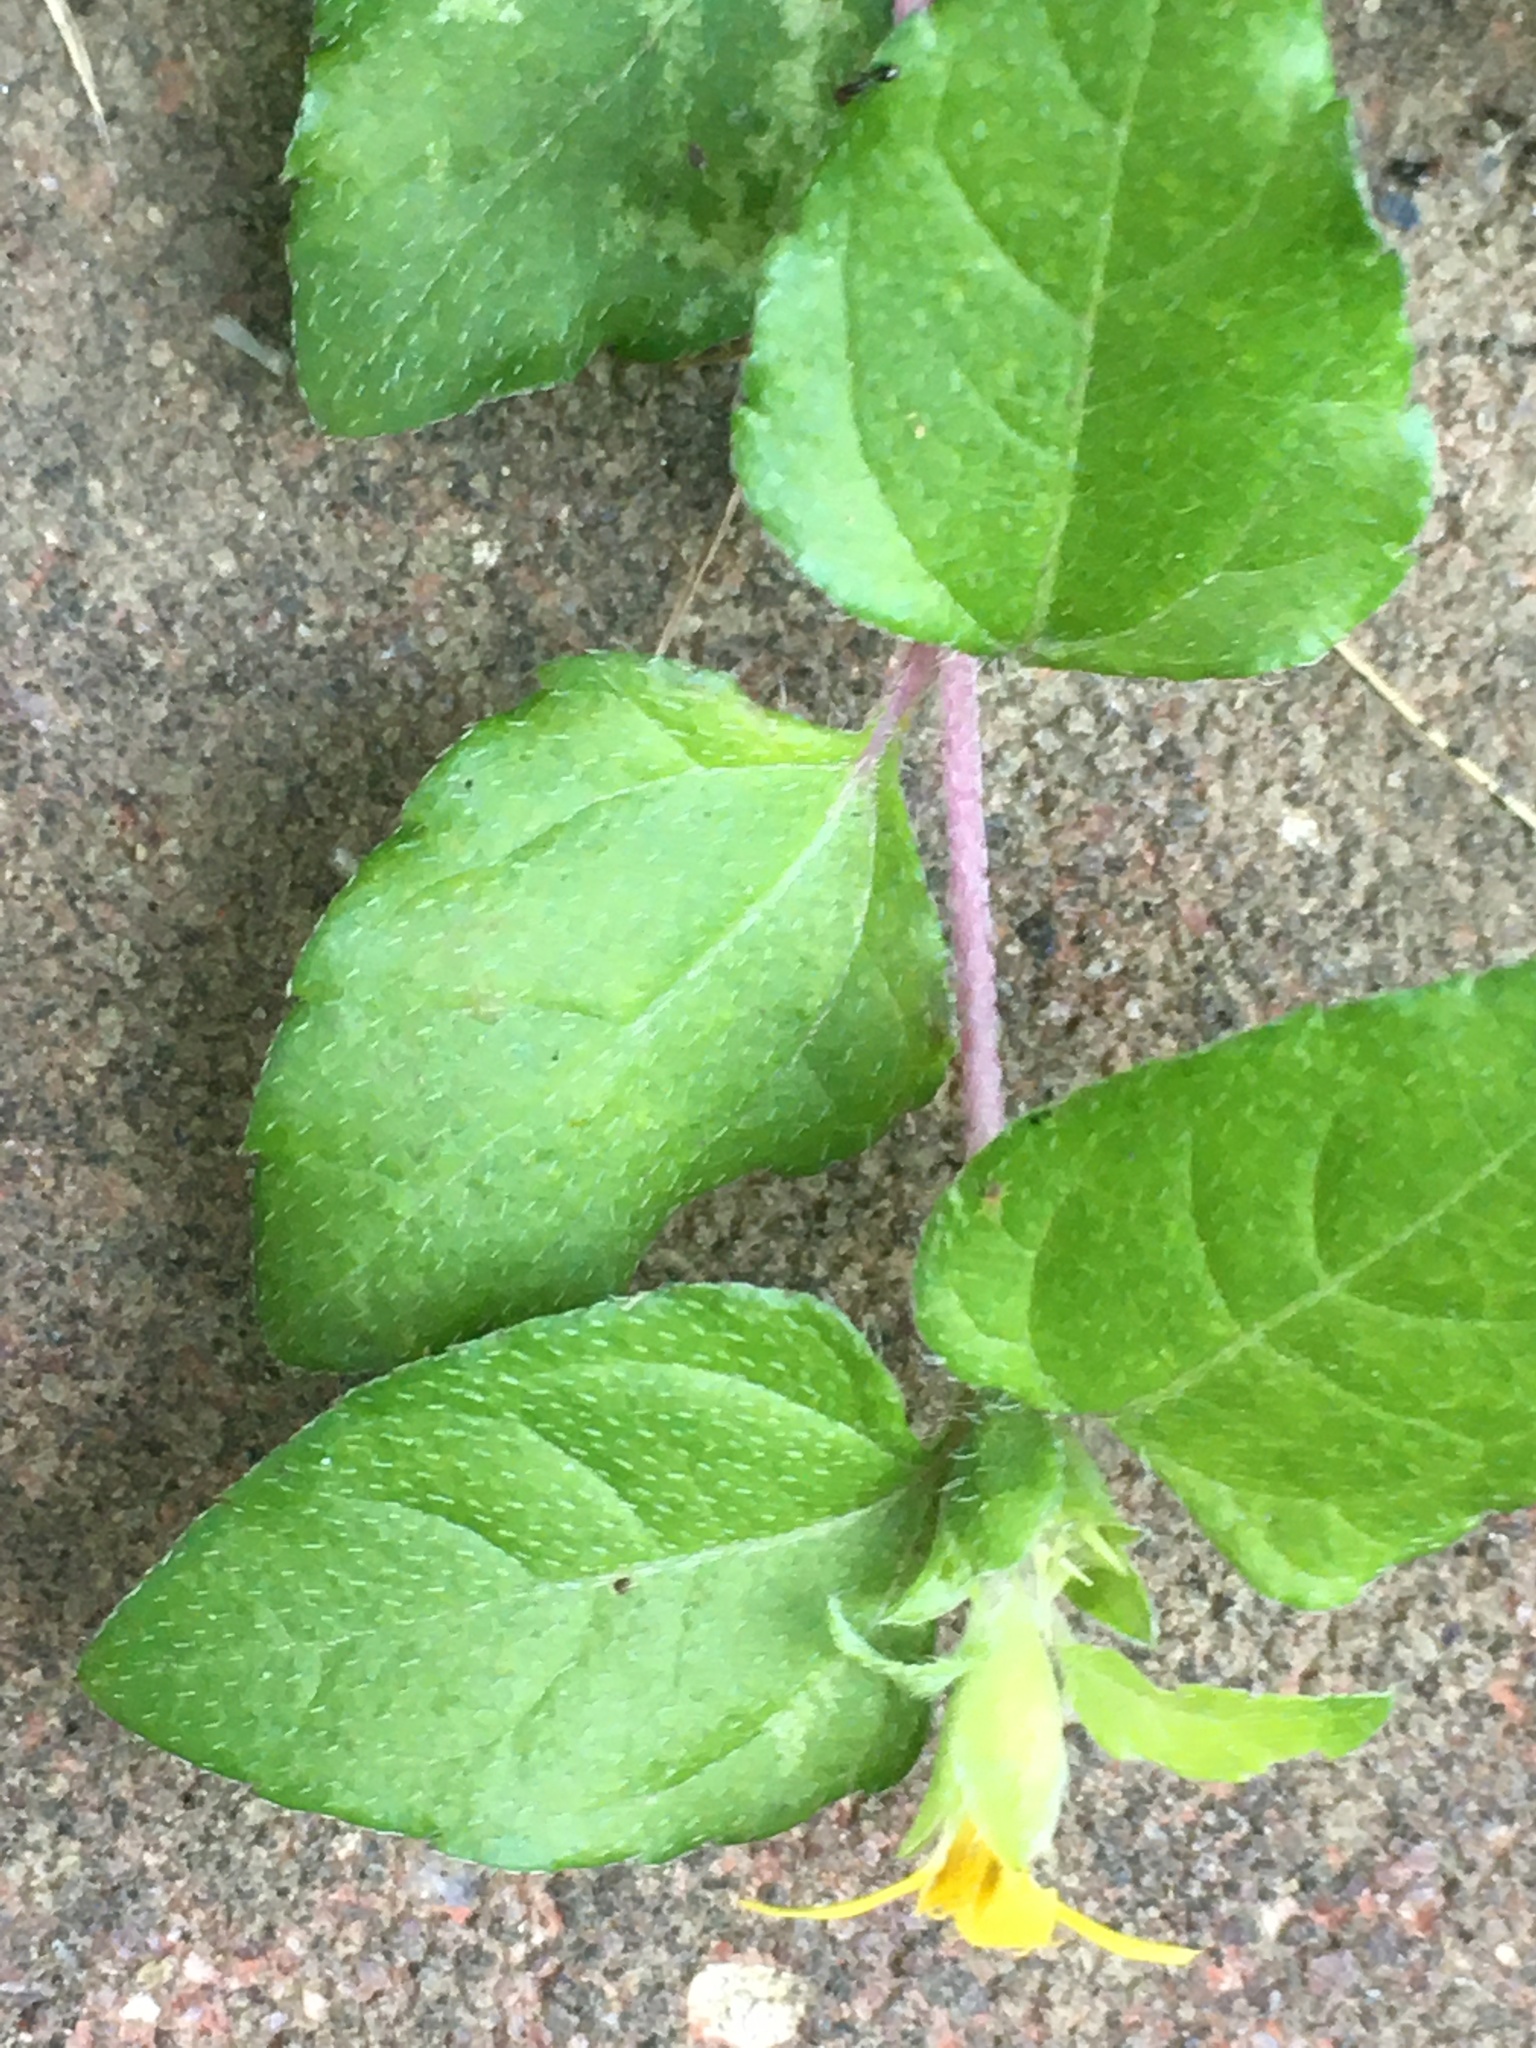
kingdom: Plantae
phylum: Tracheophyta
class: Magnoliopsida
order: Asterales
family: Asteraceae
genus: Calyptocarpus
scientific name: Calyptocarpus vialis
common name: Straggler daisy
